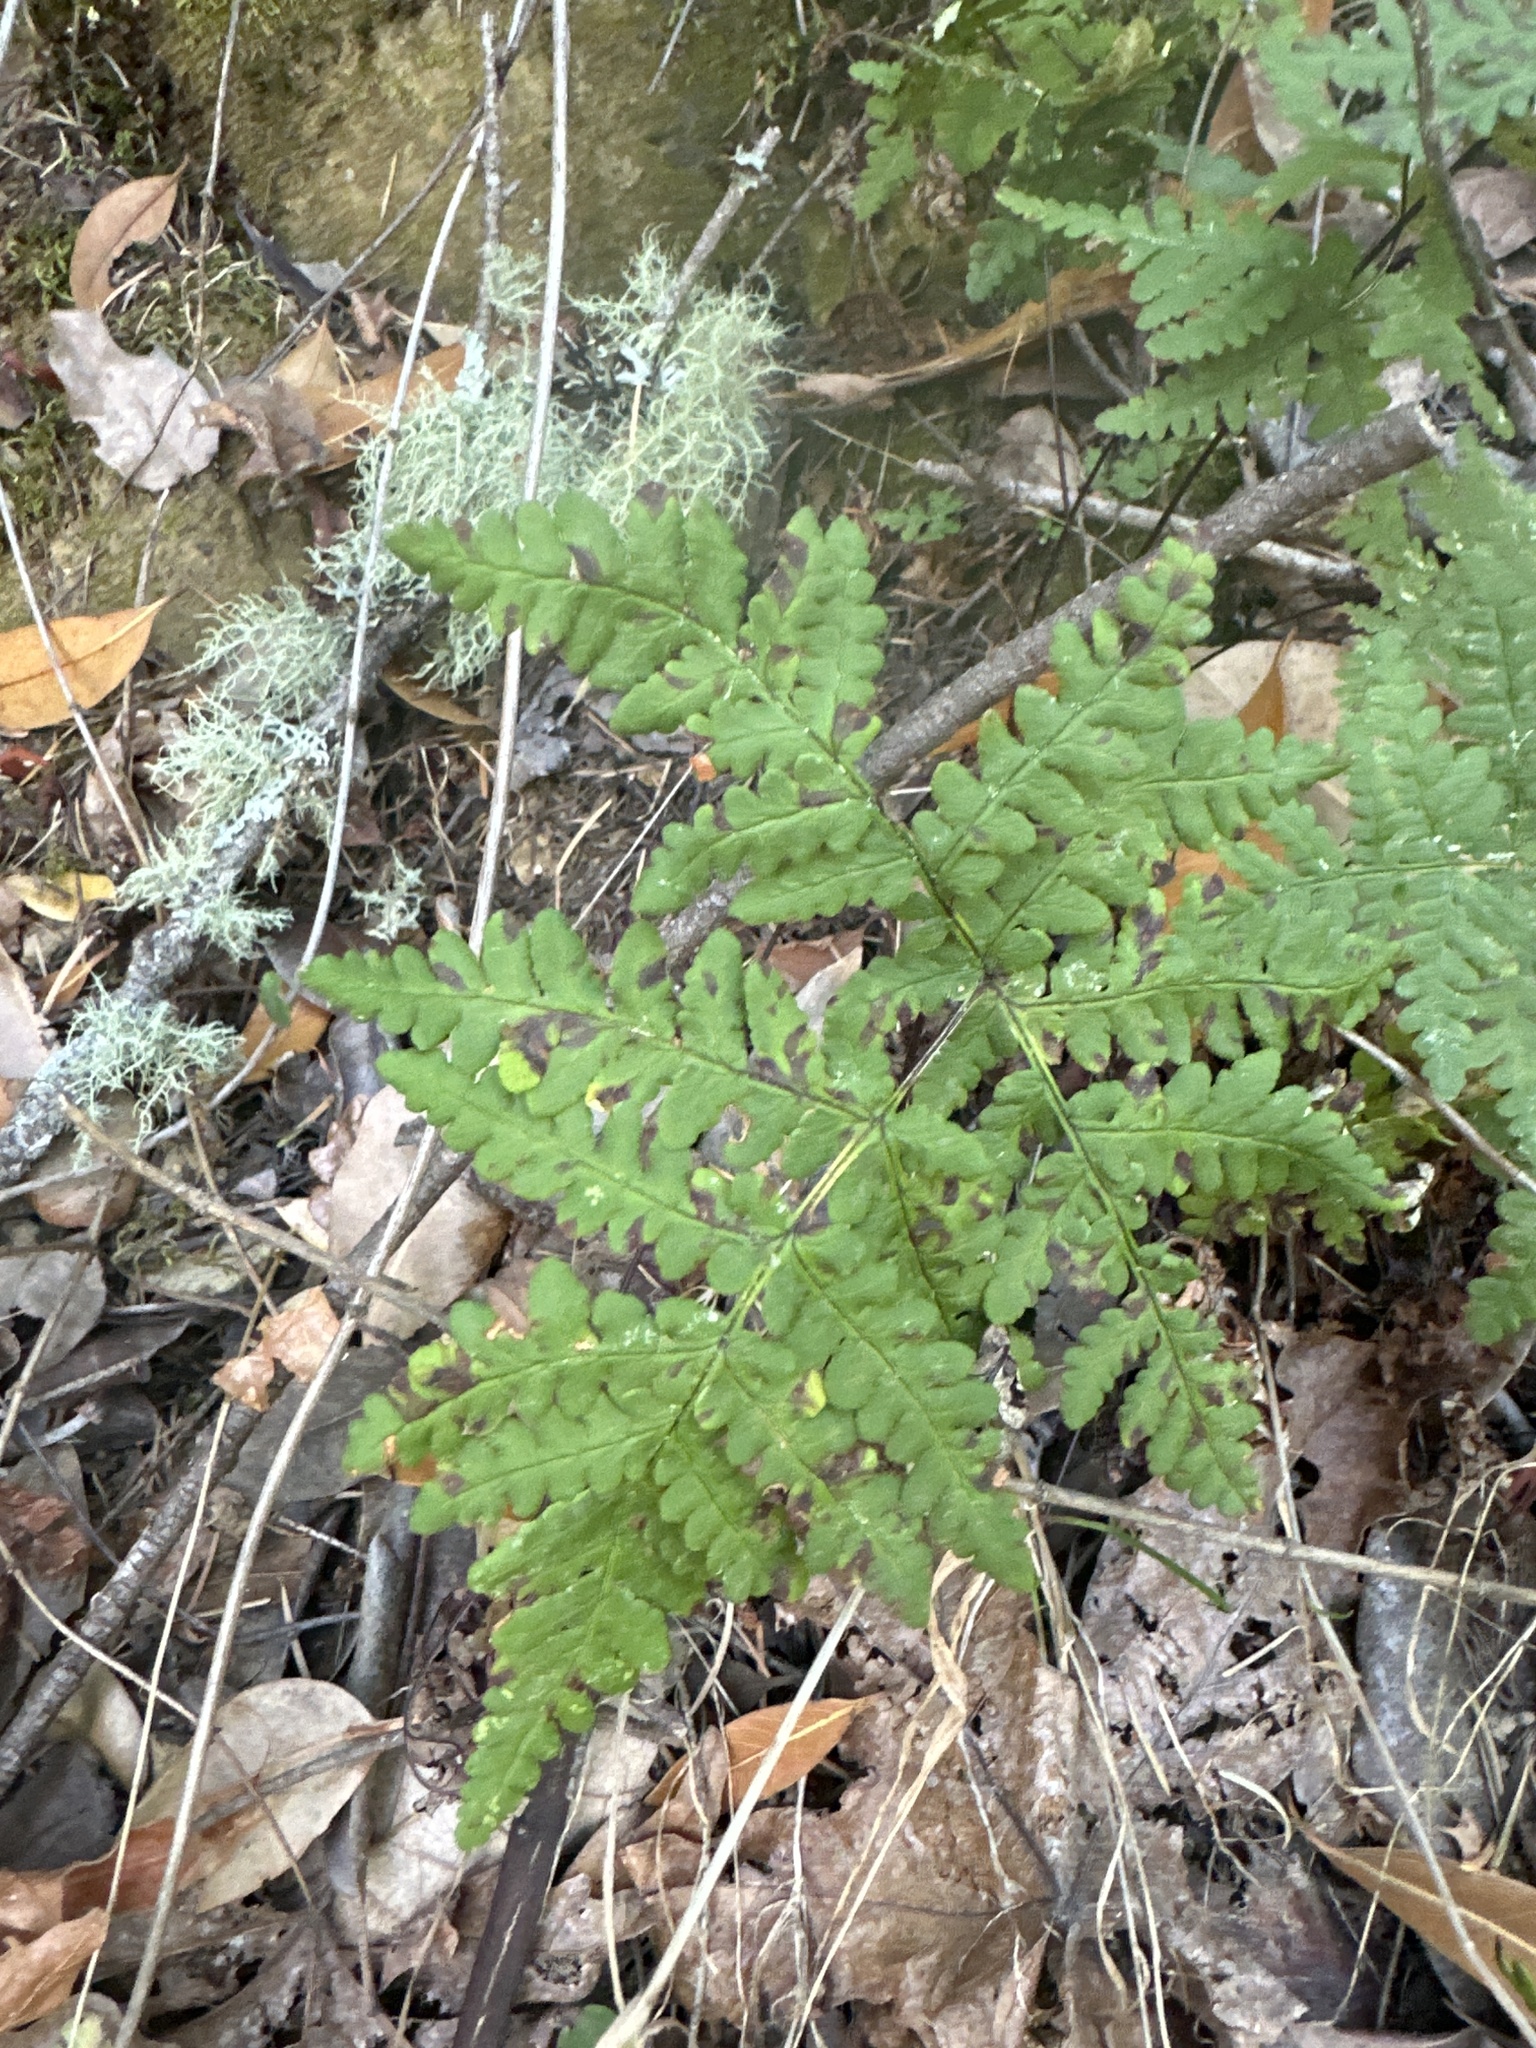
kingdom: Plantae
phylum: Tracheophyta
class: Polypodiopsida
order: Polypodiales
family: Pteridaceae
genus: Pentagramma
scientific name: Pentagramma triangularis
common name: Gold fern
